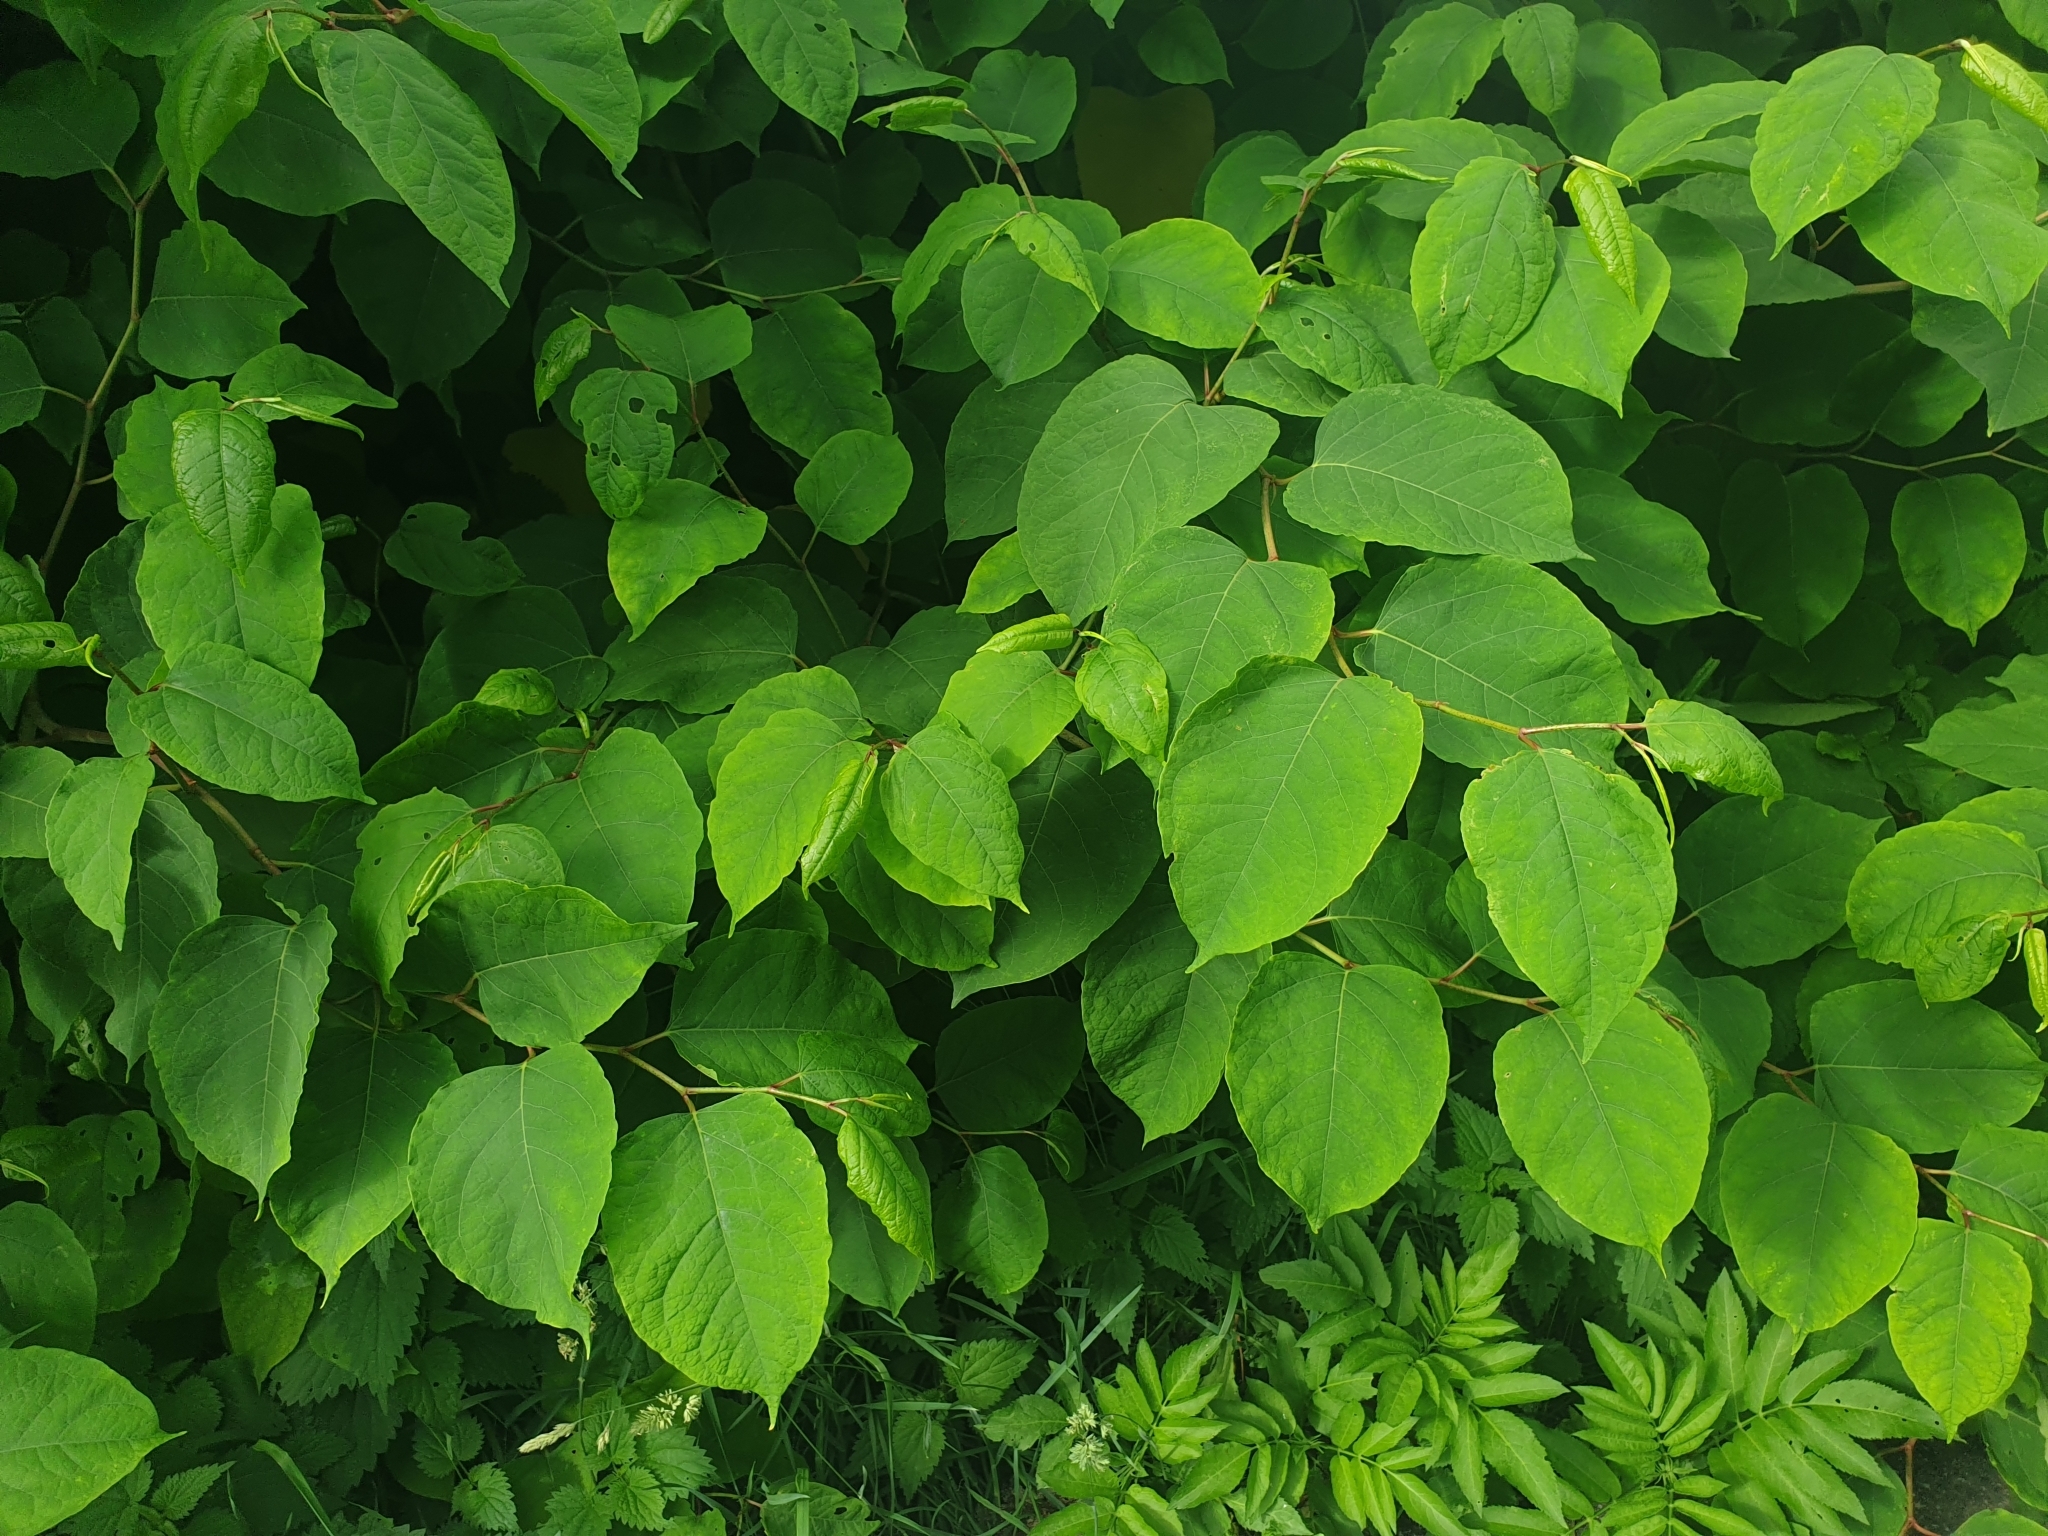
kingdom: Plantae
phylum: Tracheophyta
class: Magnoliopsida
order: Caryophyllales
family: Polygonaceae
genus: Reynoutria
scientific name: Reynoutria bohemica
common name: Bohemian knotweed
